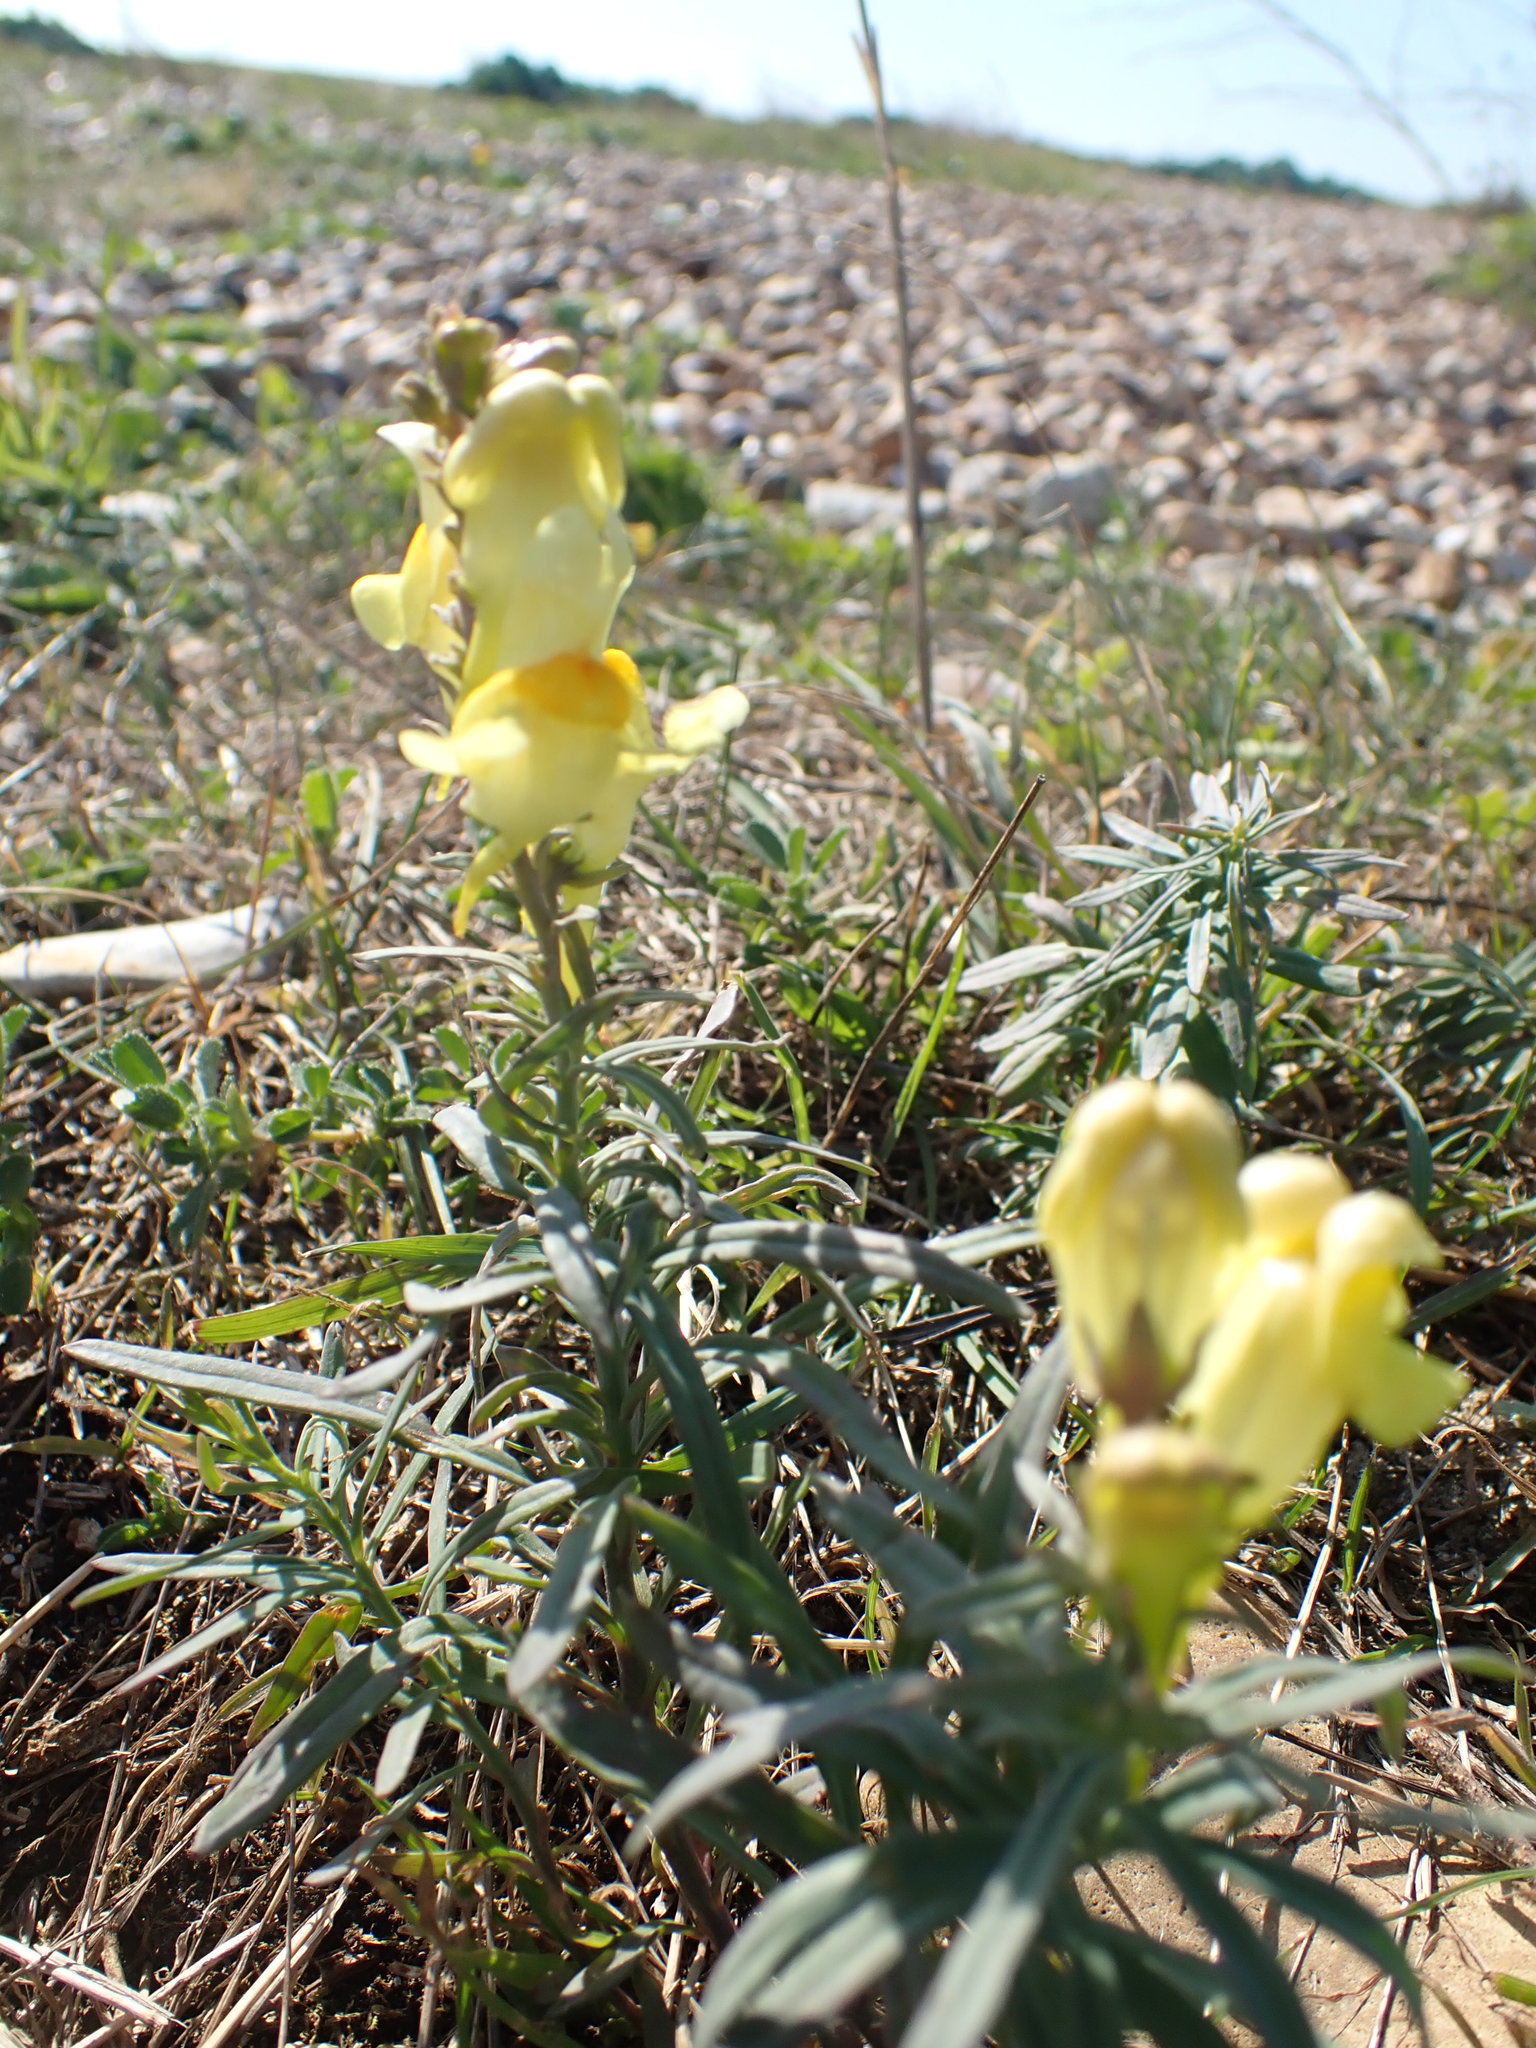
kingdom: Plantae
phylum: Tracheophyta
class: Magnoliopsida
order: Lamiales
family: Plantaginaceae
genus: Linaria
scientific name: Linaria vulgaris
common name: Butter and eggs
